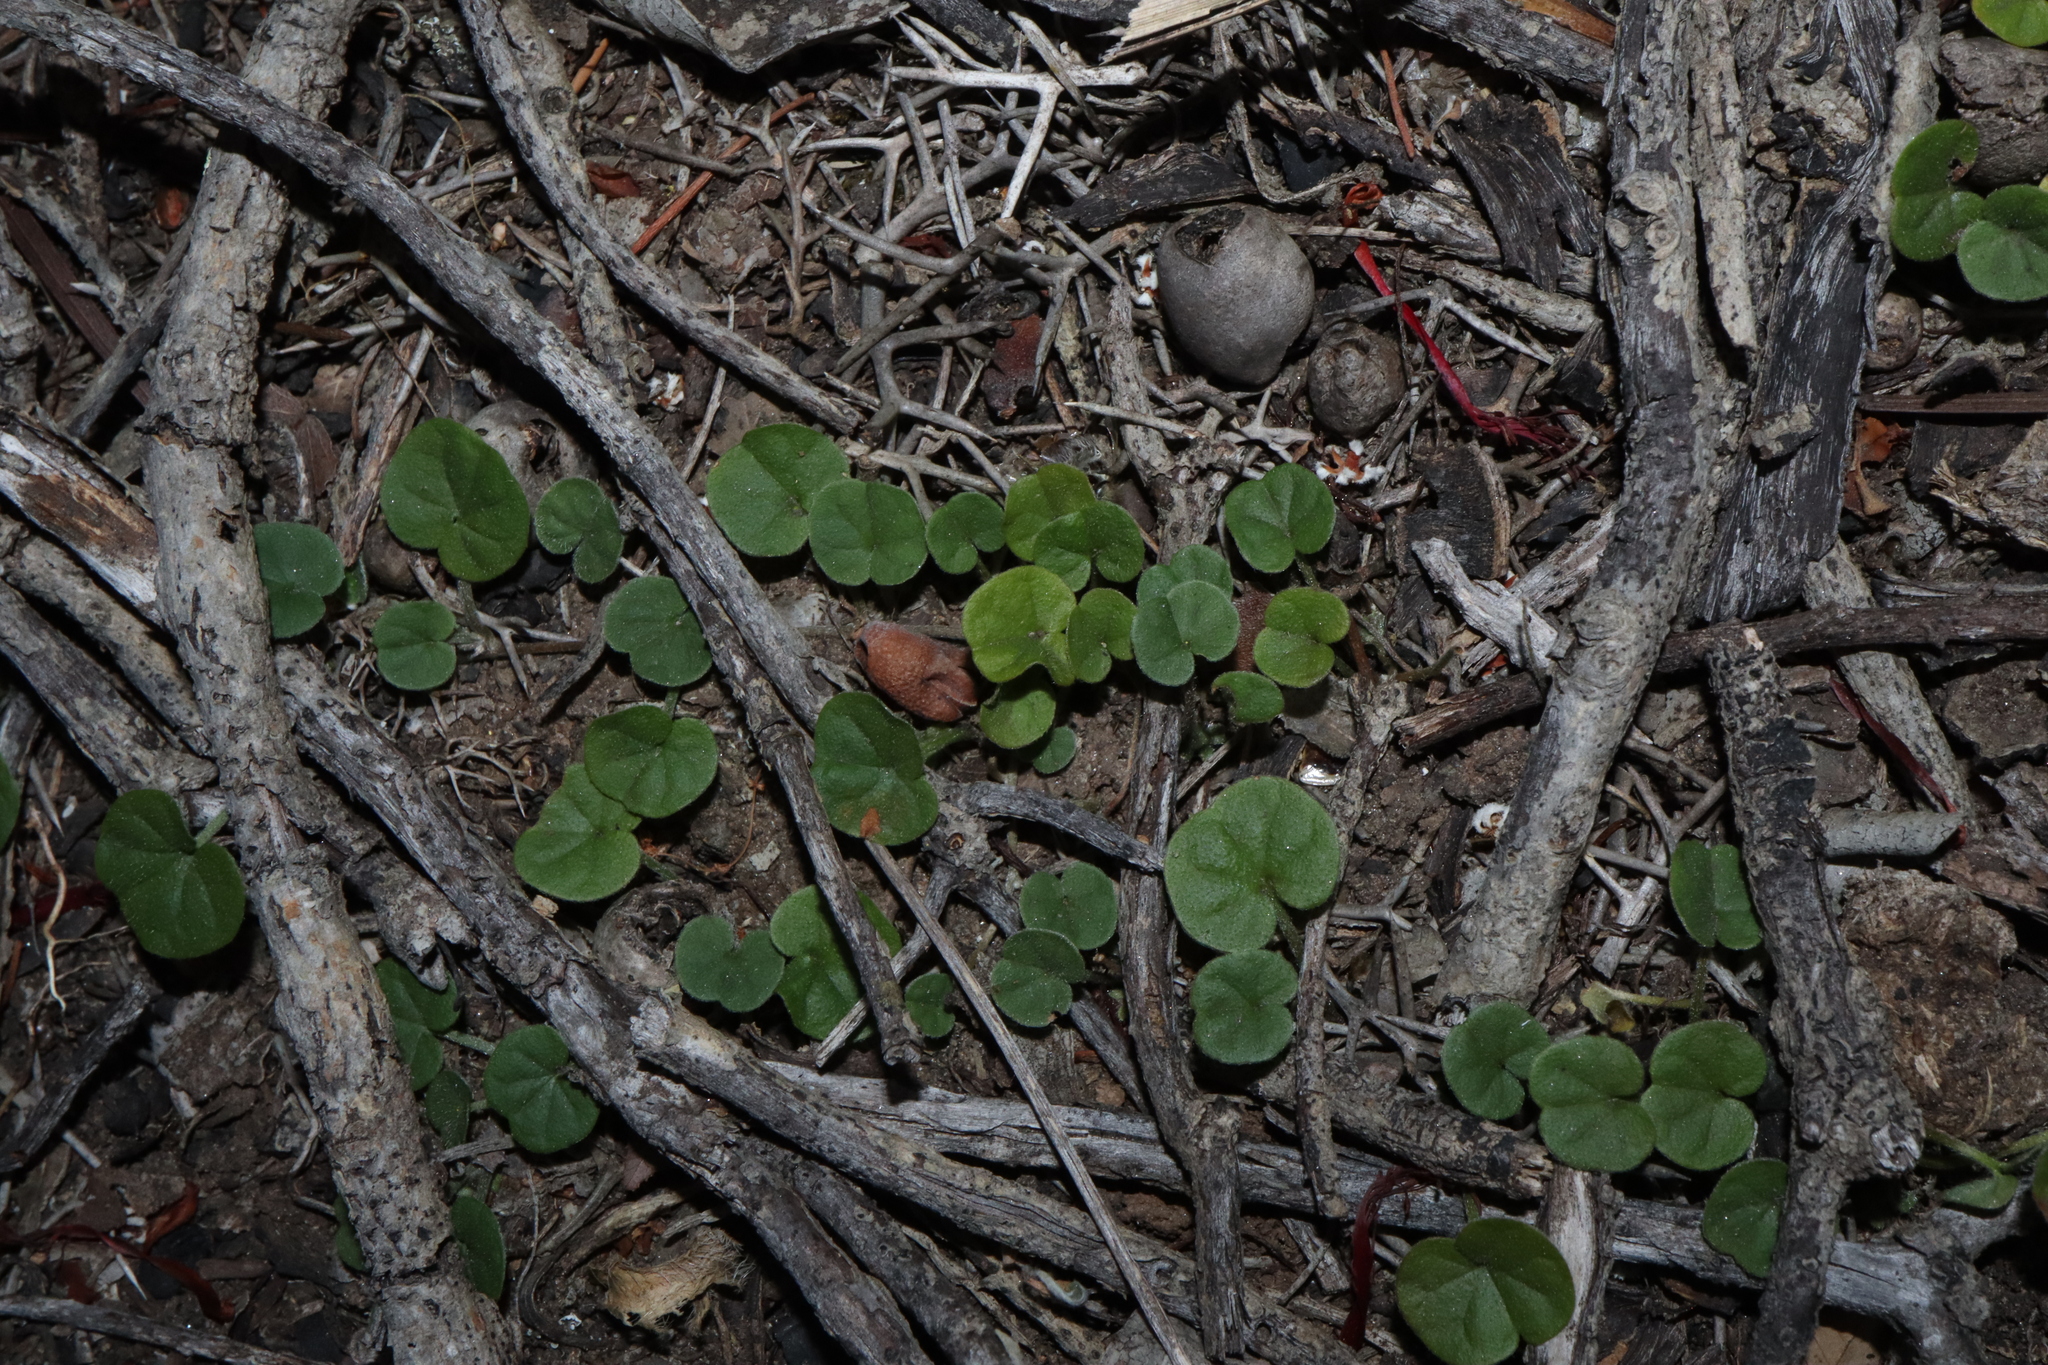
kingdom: Plantae
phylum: Tracheophyta
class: Magnoliopsida
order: Solanales
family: Convolvulaceae
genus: Dichondra
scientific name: Dichondra repens
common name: Kidneyweed
